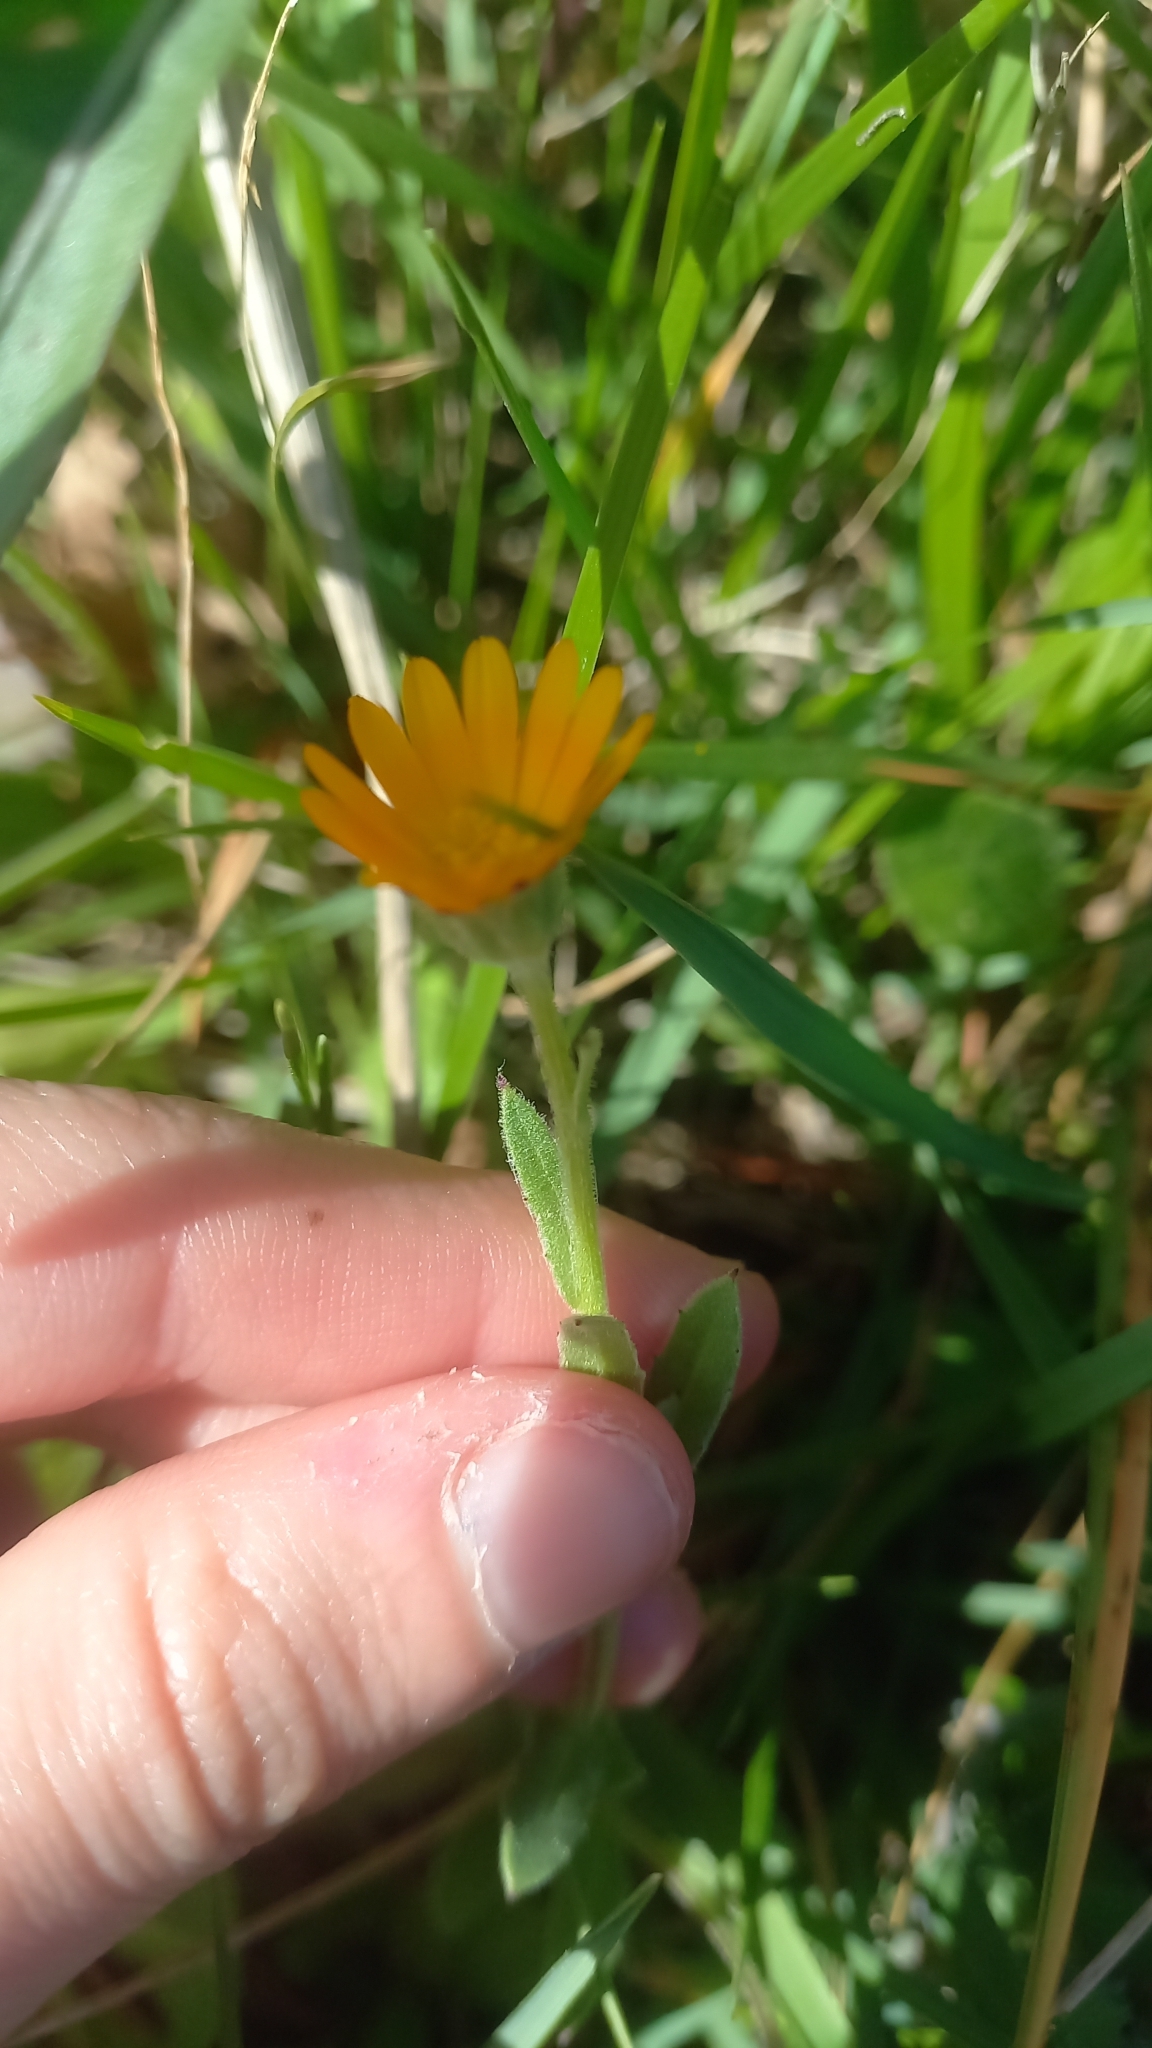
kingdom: Plantae
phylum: Tracheophyta
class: Magnoliopsida
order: Asterales
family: Asteraceae
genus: Calendula
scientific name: Calendula arvensis
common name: Field marigold
